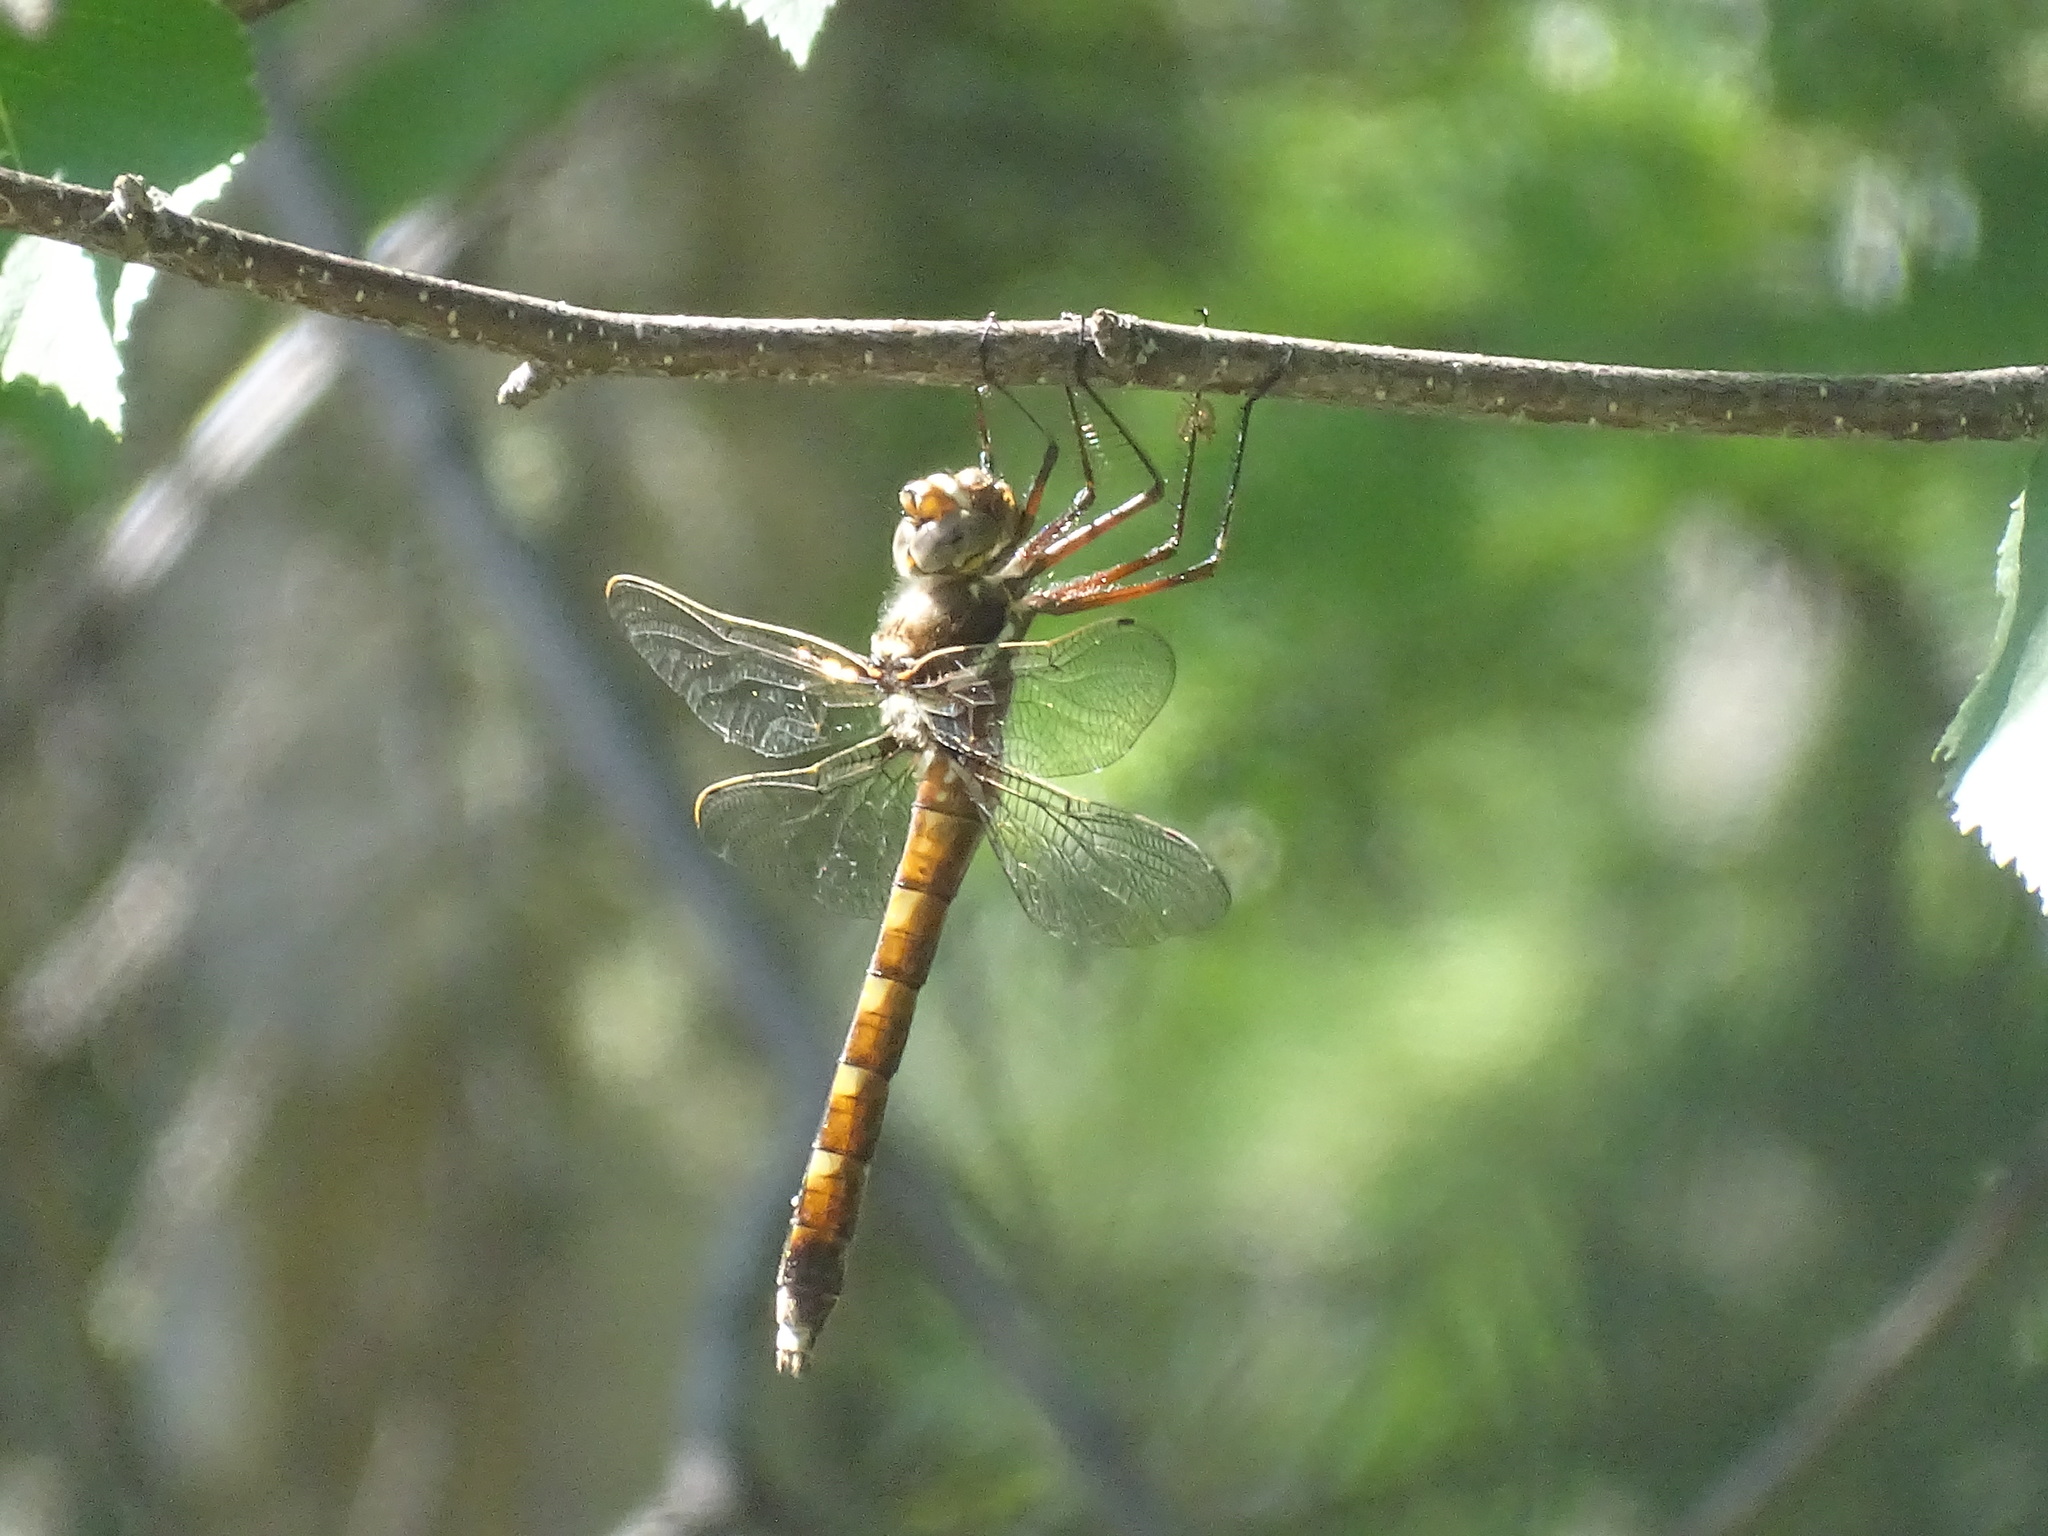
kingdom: Animalia
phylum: Arthropoda
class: Insecta
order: Odonata
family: Macromiidae
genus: Didymops
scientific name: Didymops transversa
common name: Stream cruiser
